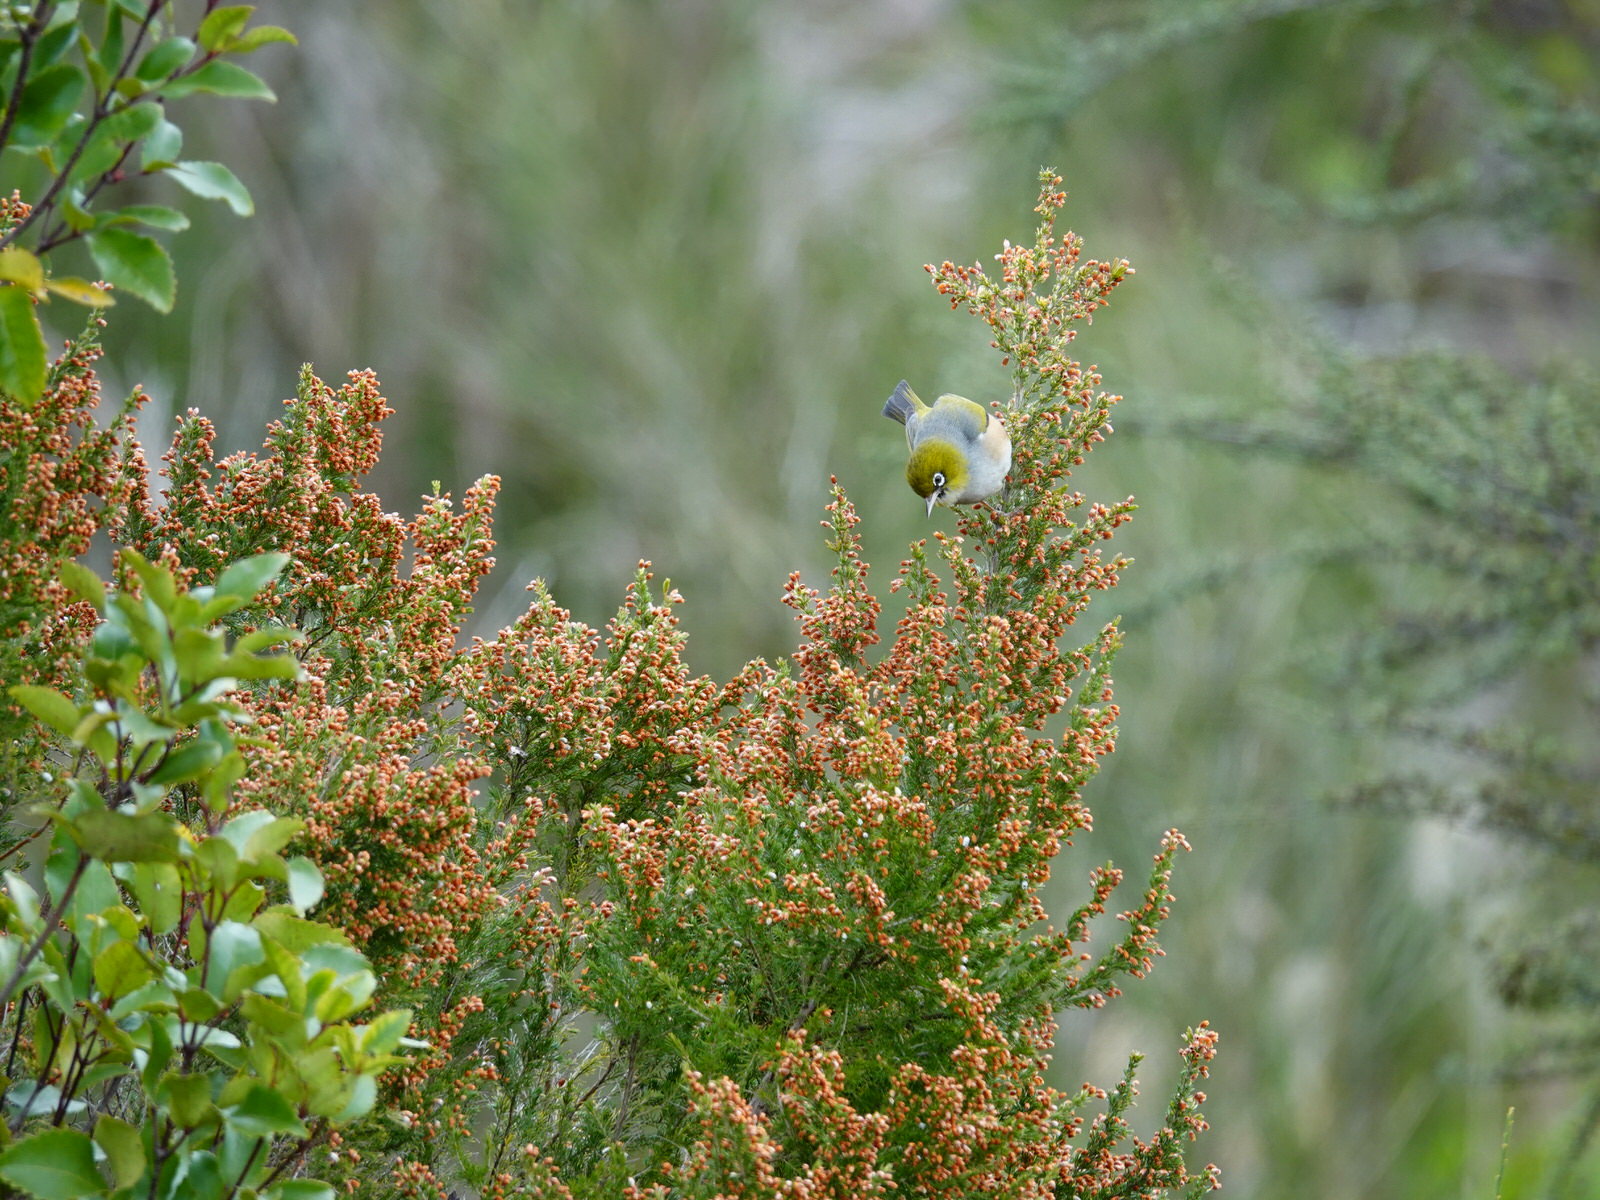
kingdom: Animalia
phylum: Chordata
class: Aves
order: Passeriformes
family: Zosteropidae
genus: Zosterops
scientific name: Zosterops lateralis
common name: Silvereye
